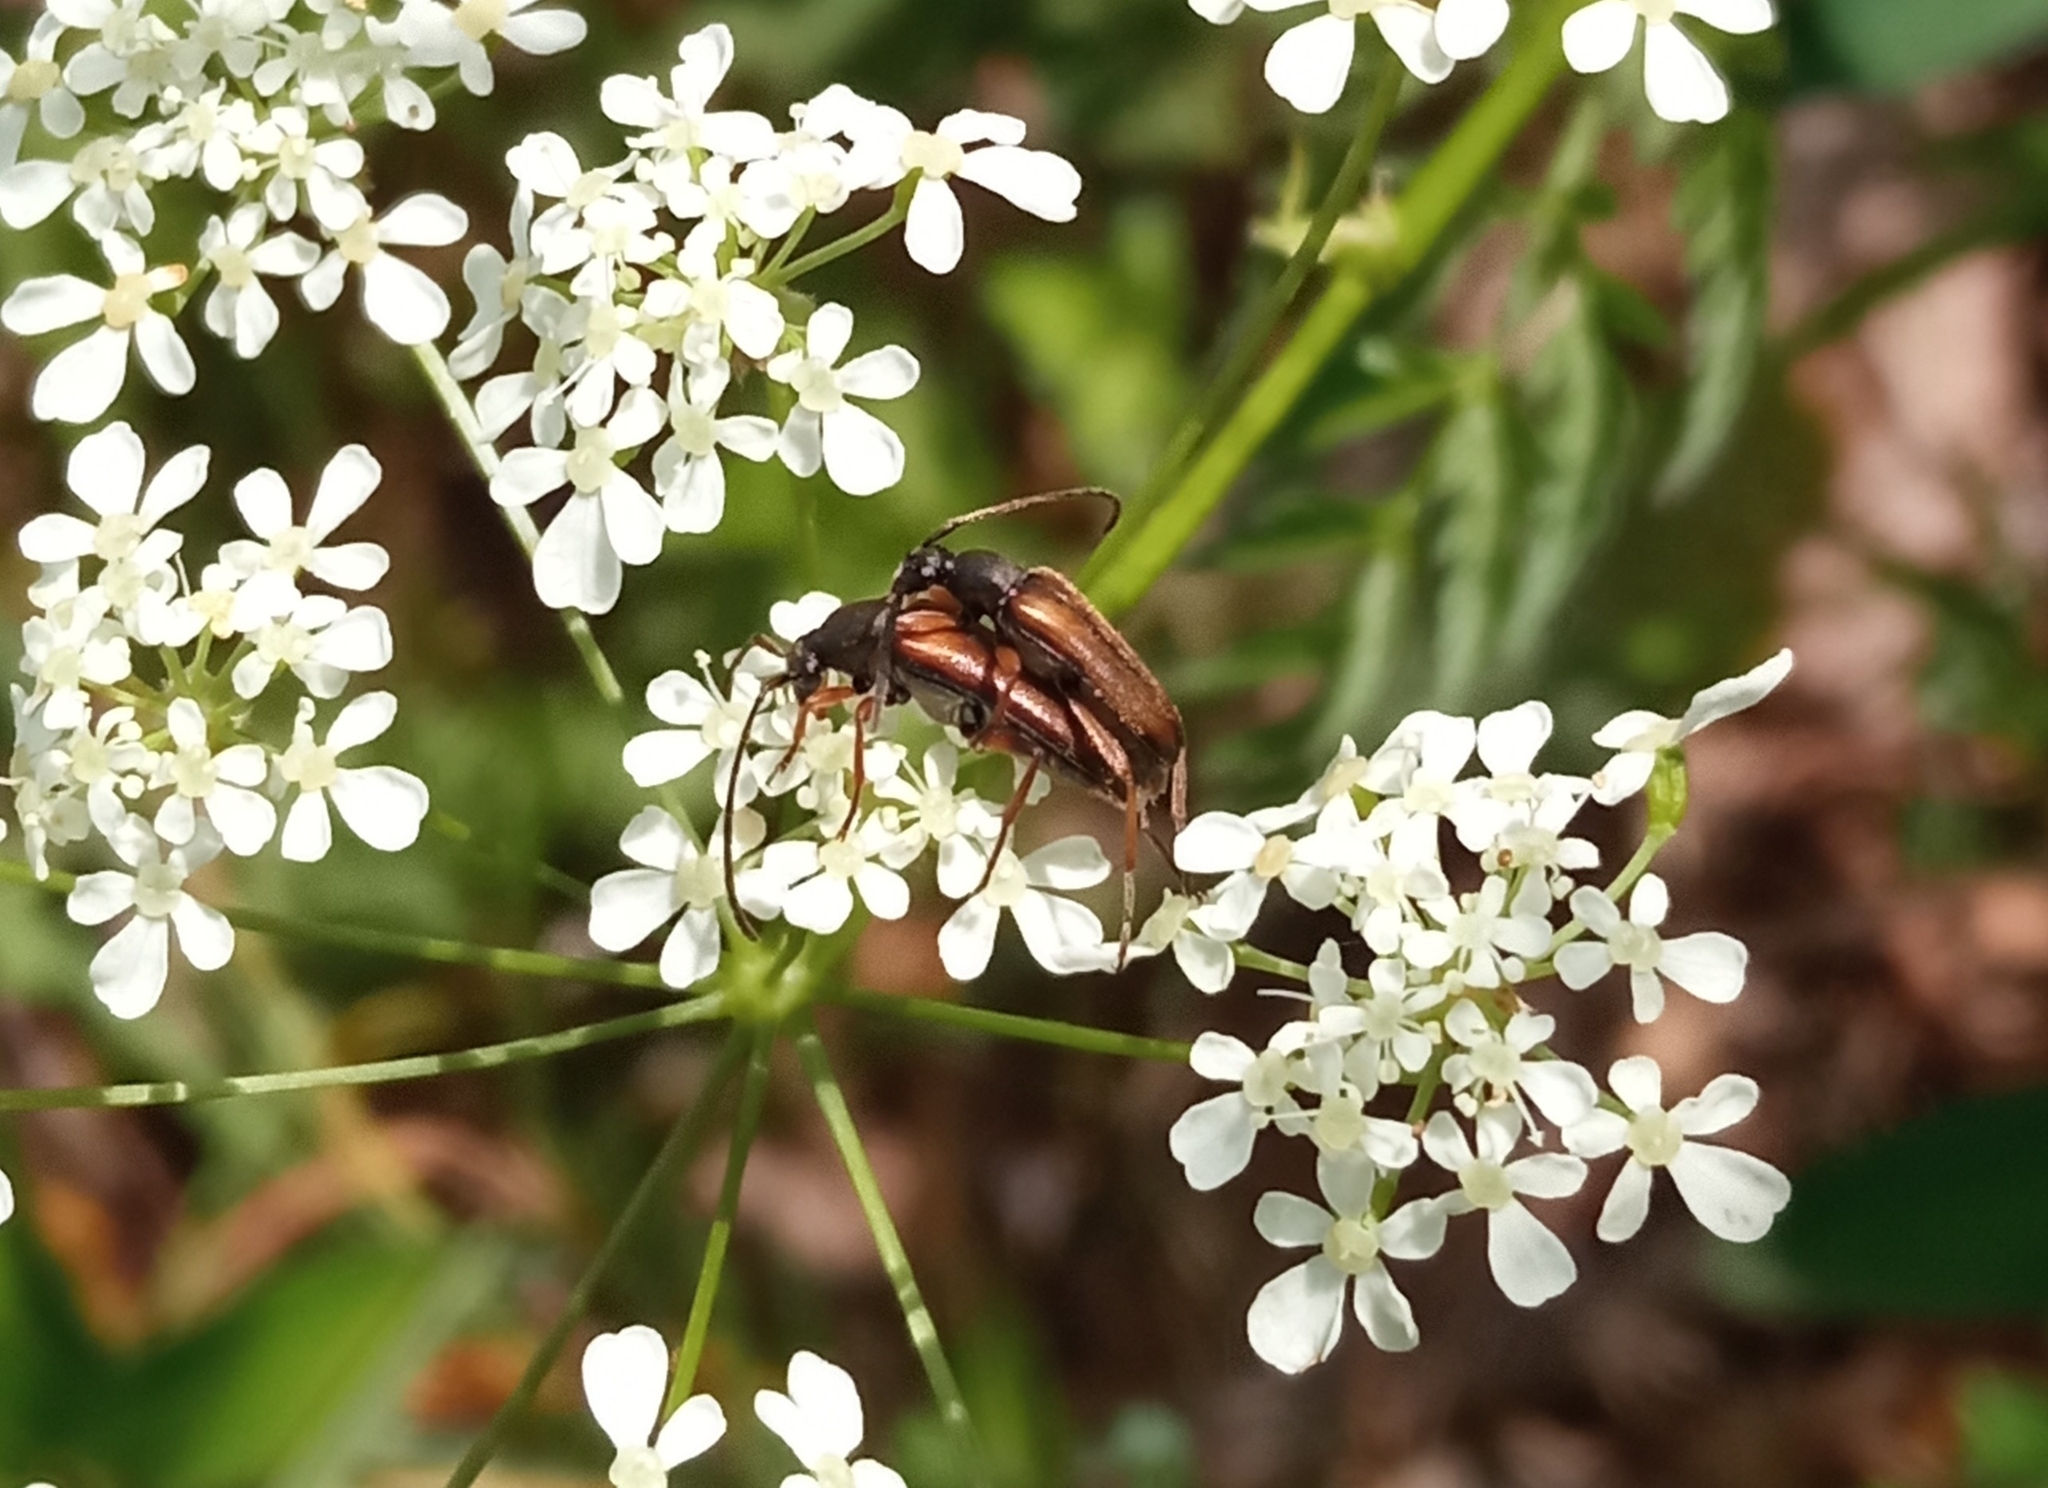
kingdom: Animalia
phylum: Arthropoda
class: Insecta
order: Coleoptera
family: Cerambycidae
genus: Alosterna
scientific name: Alosterna tabacicolor
